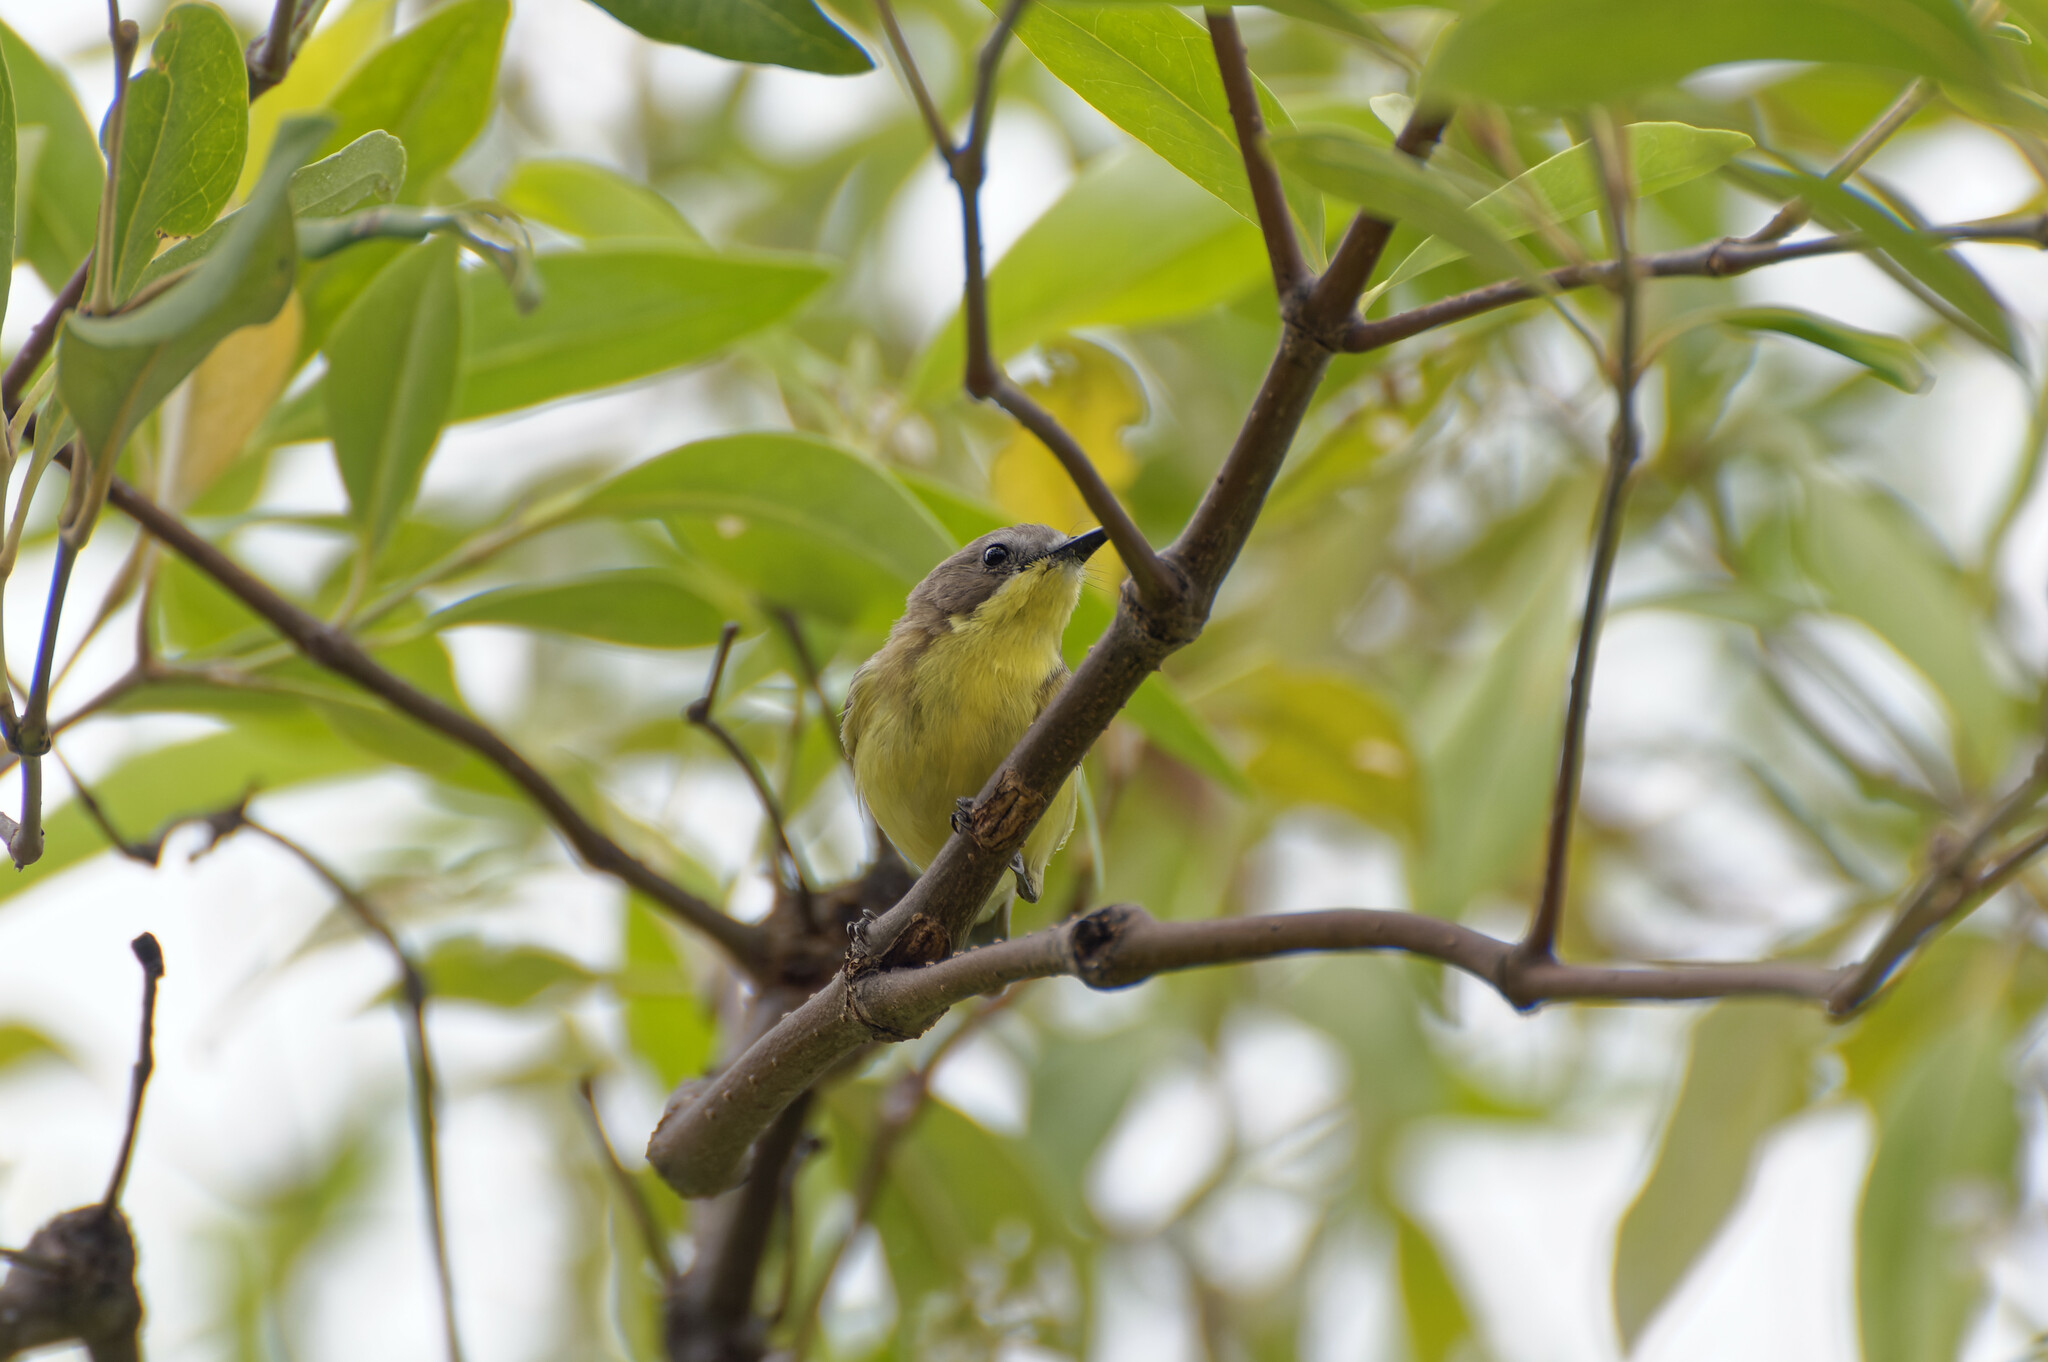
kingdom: Animalia
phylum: Chordata
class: Aves
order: Passeriformes
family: Acanthizidae
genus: Gerygone
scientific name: Gerygone sulphurea
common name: Golden-bellied gerygone
